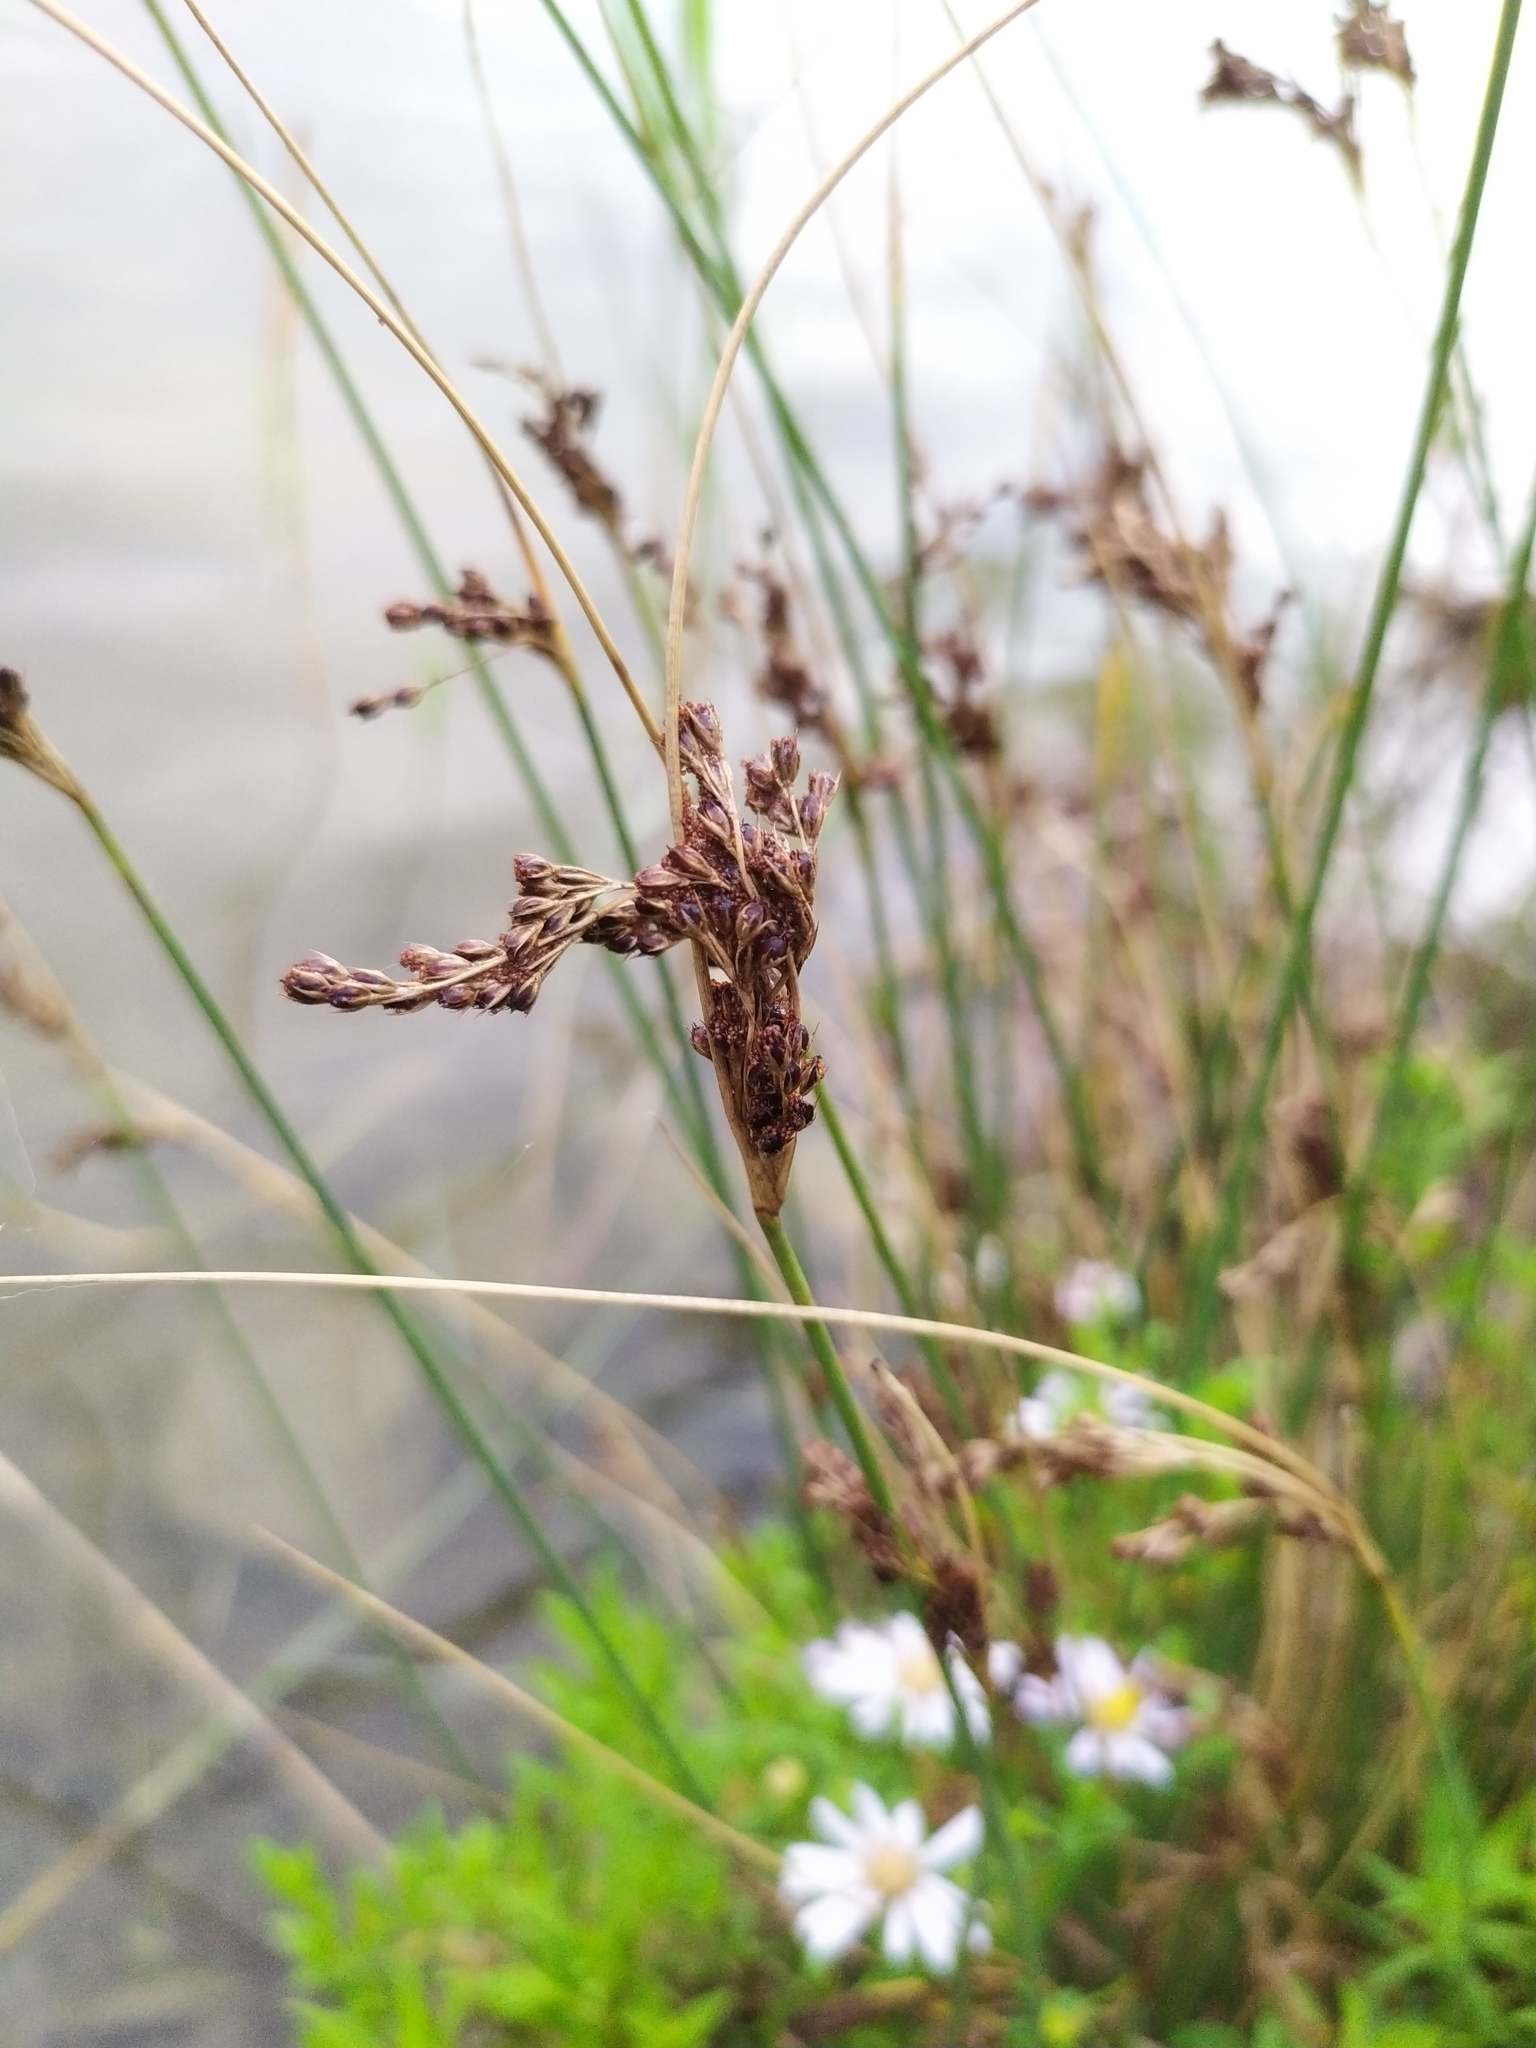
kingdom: Plantae
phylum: Tracheophyta
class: Liliopsida
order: Poales
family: Juncaceae
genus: Juncus
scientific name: Juncus inflexus
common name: Hard rush
